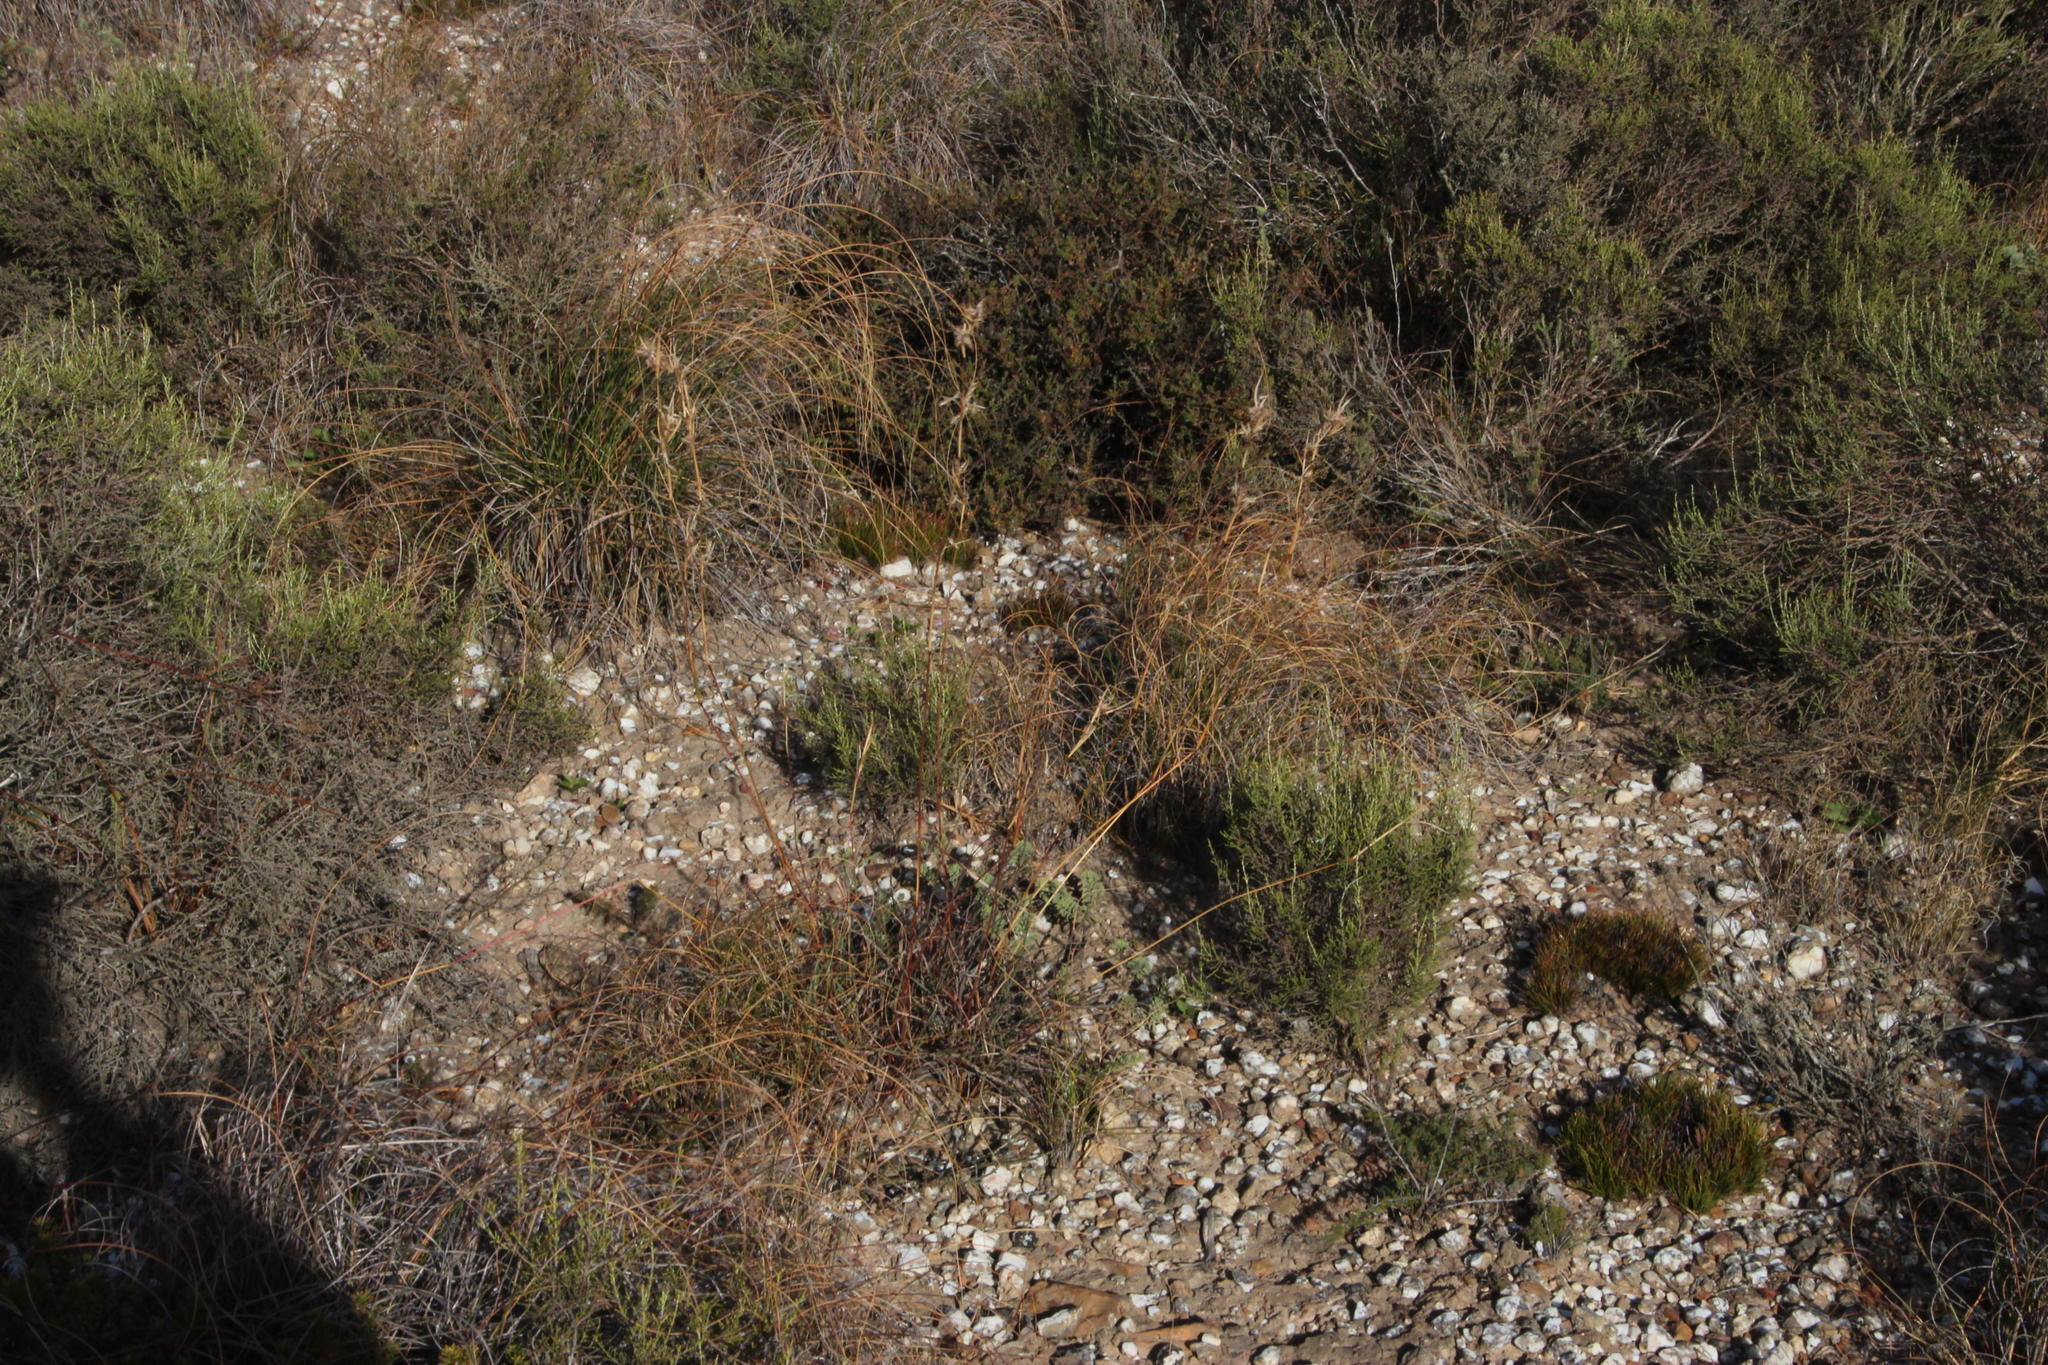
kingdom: Plantae
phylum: Tracheophyta
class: Liliopsida
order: Poales
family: Poaceae
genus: Cymbopogon
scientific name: Cymbopogon marginatus
